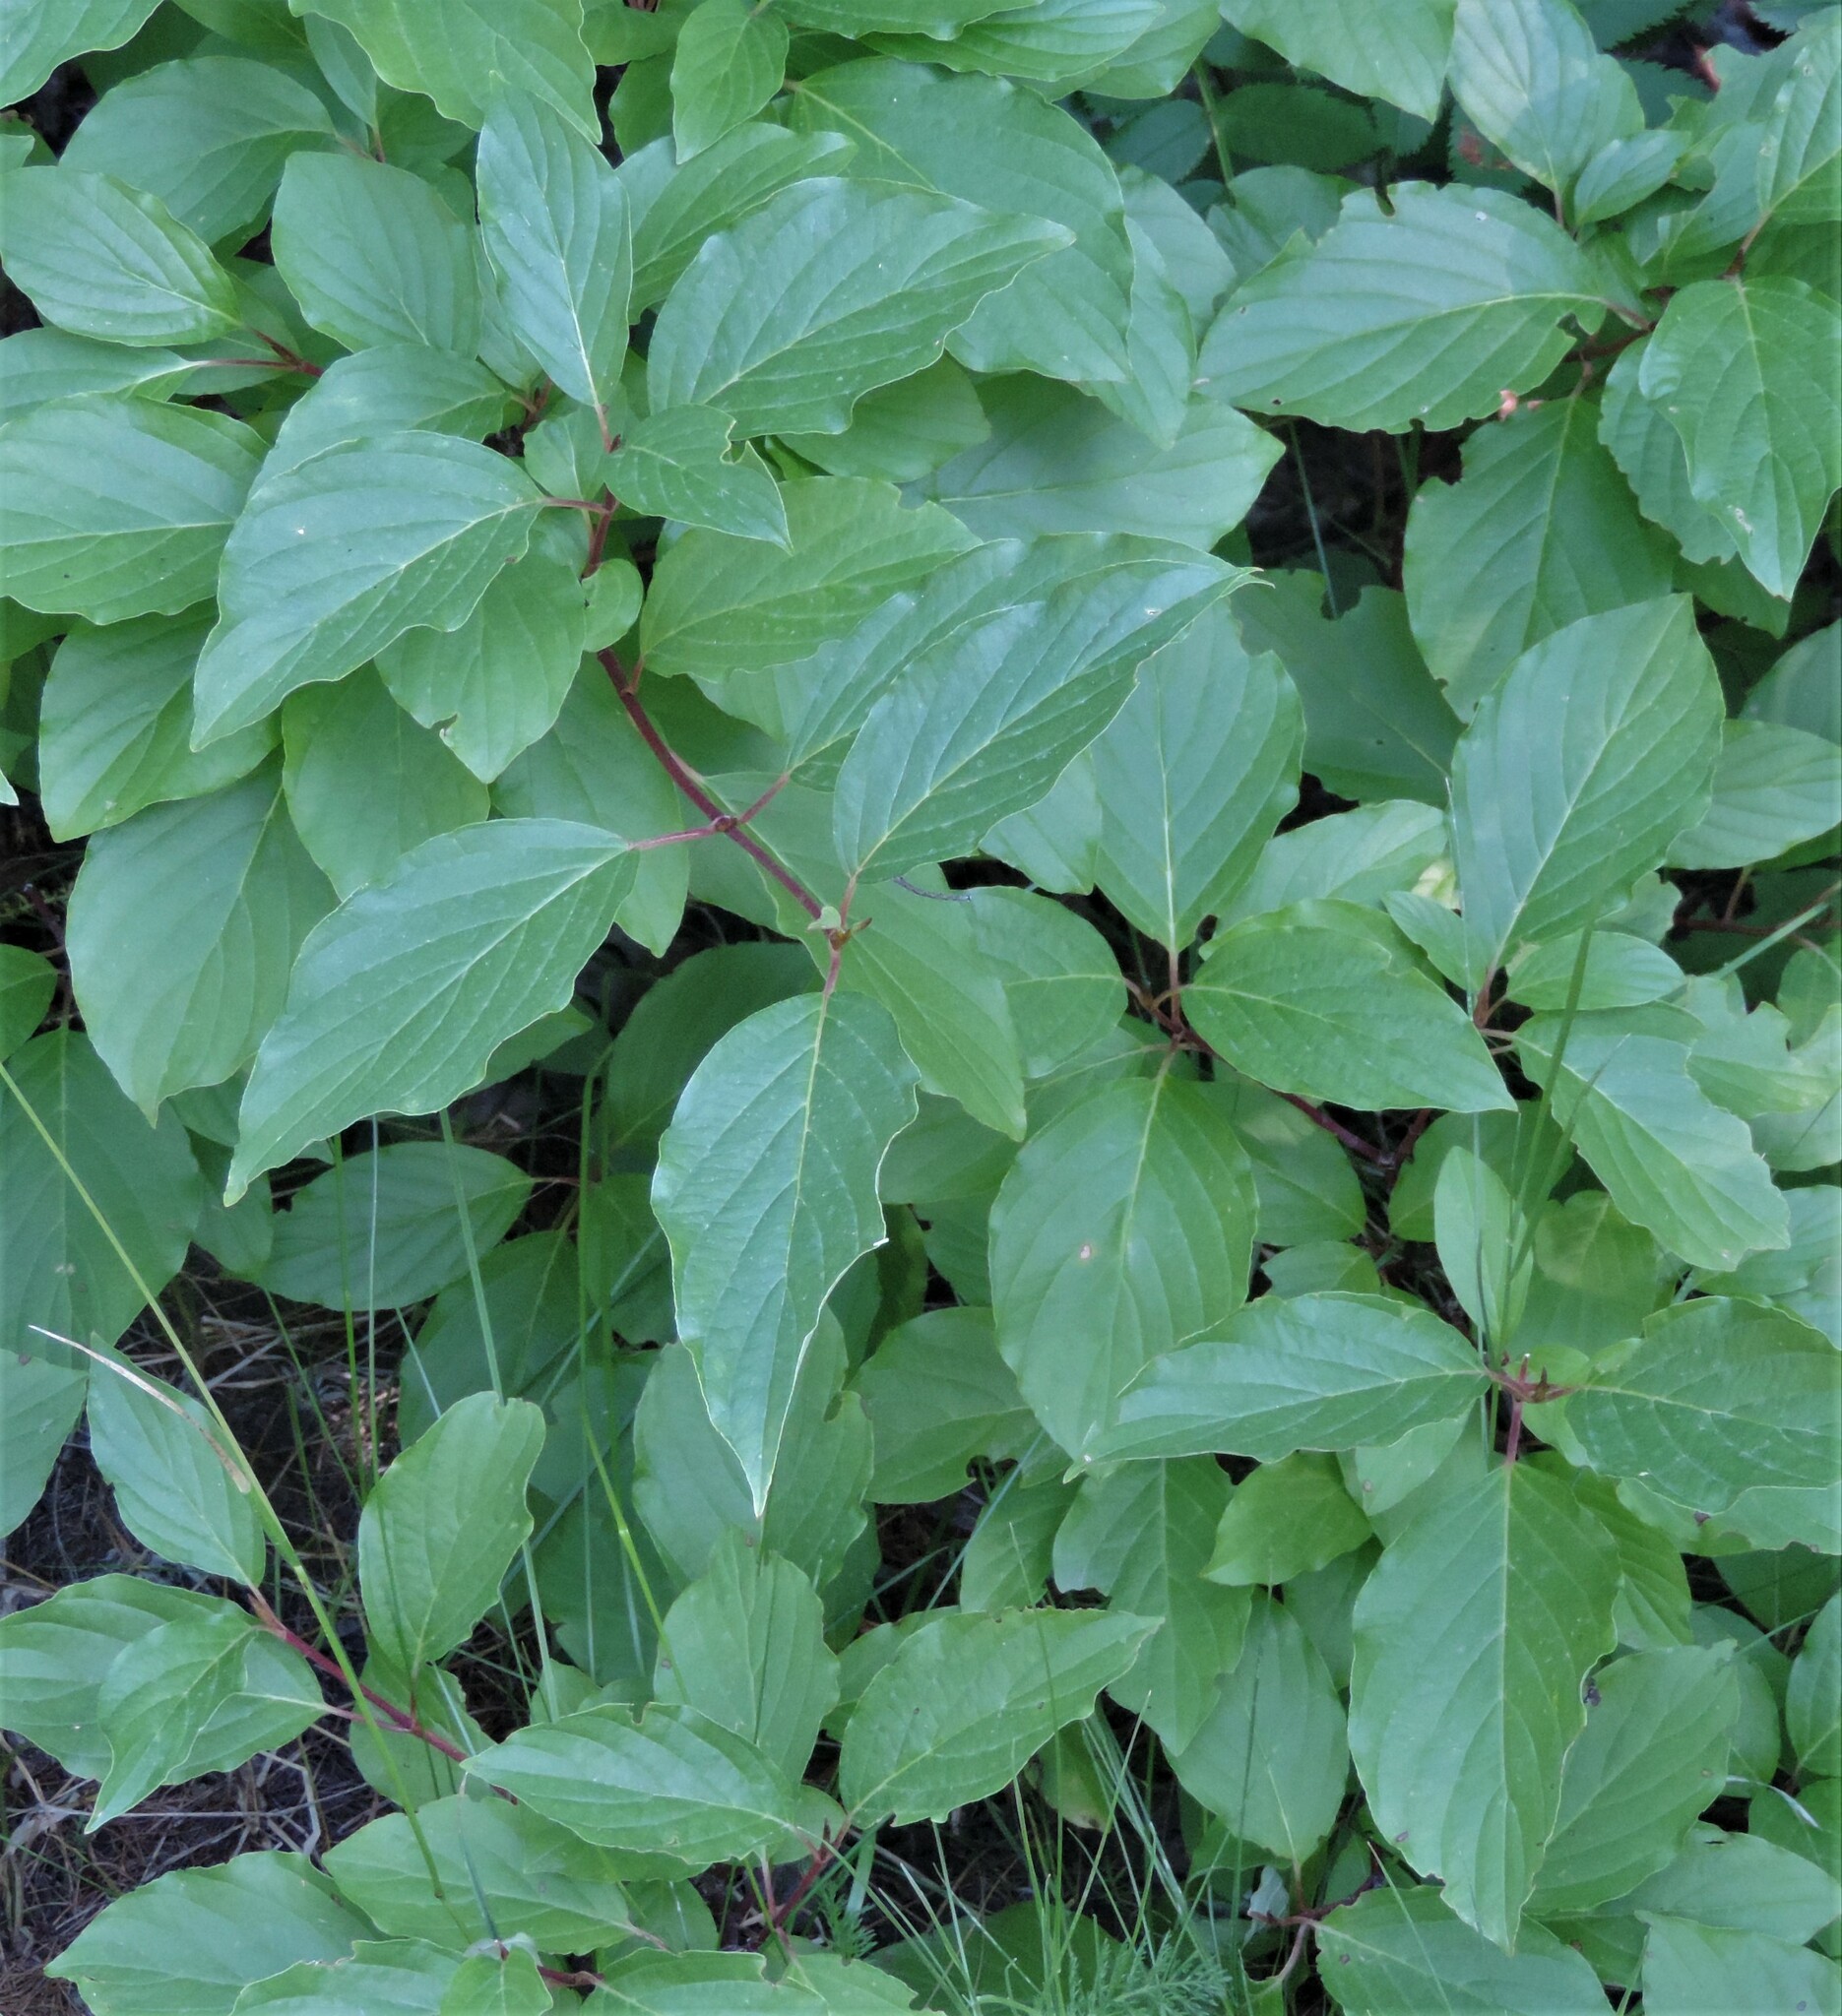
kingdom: Plantae
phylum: Tracheophyta
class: Magnoliopsida
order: Cornales
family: Cornaceae
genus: Cornus
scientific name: Cornus sericea
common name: Red-osier dogwood
